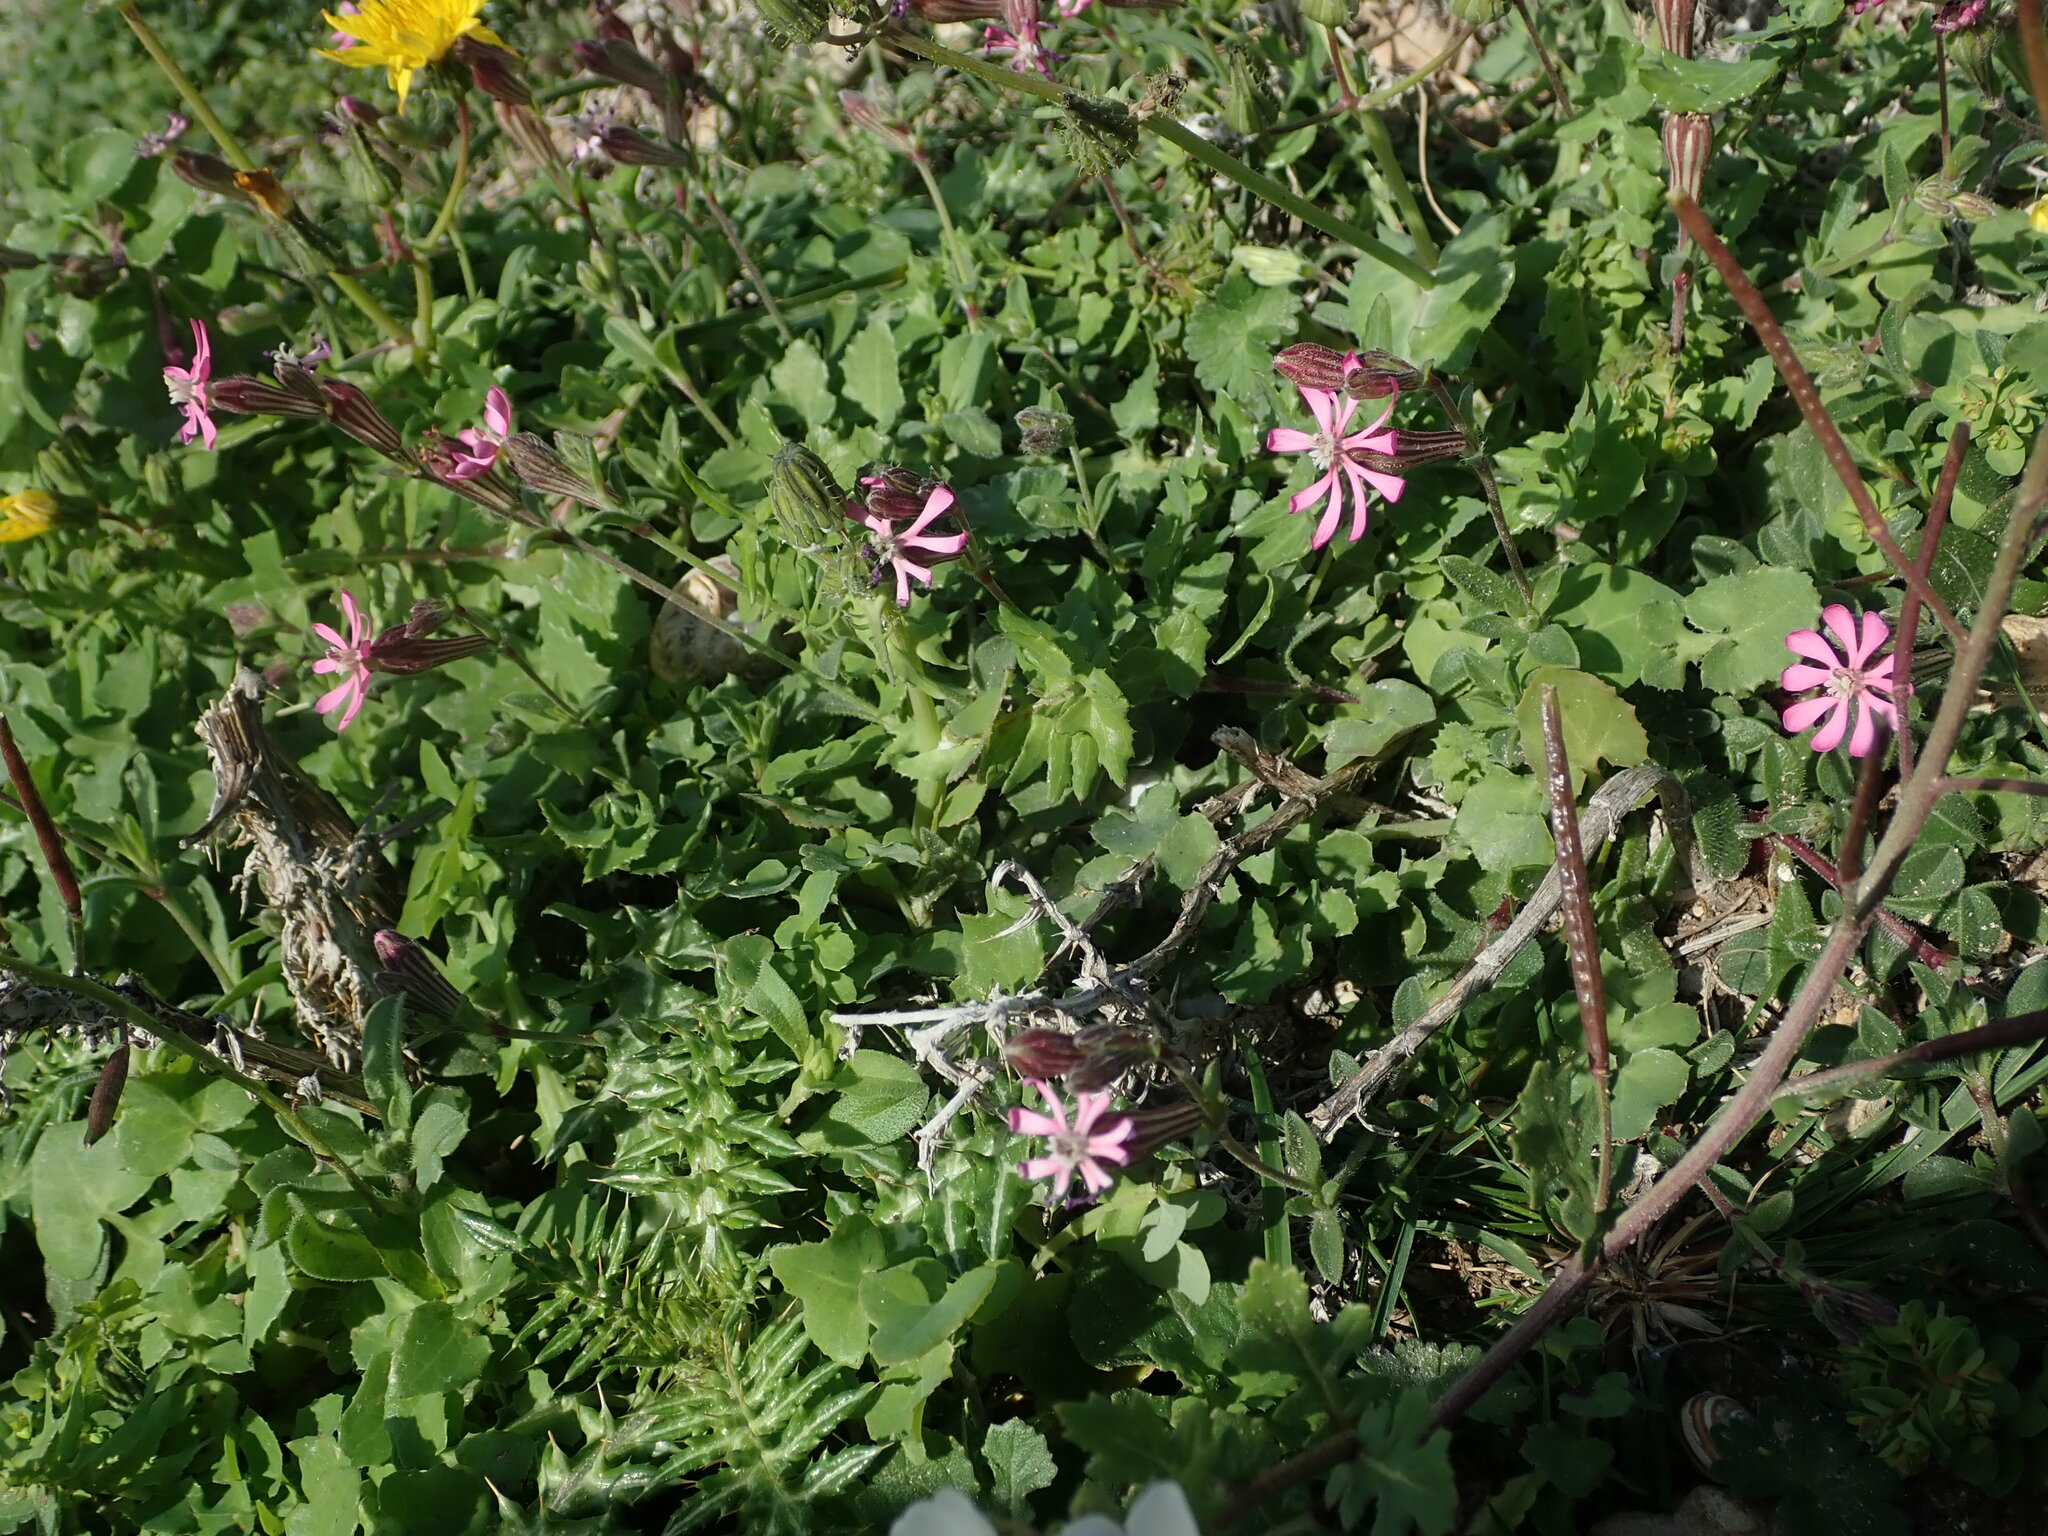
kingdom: Plantae
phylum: Tracheophyta
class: Magnoliopsida
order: Caryophyllales
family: Caryophyllaceae
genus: Silene
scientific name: Silene melitensis
